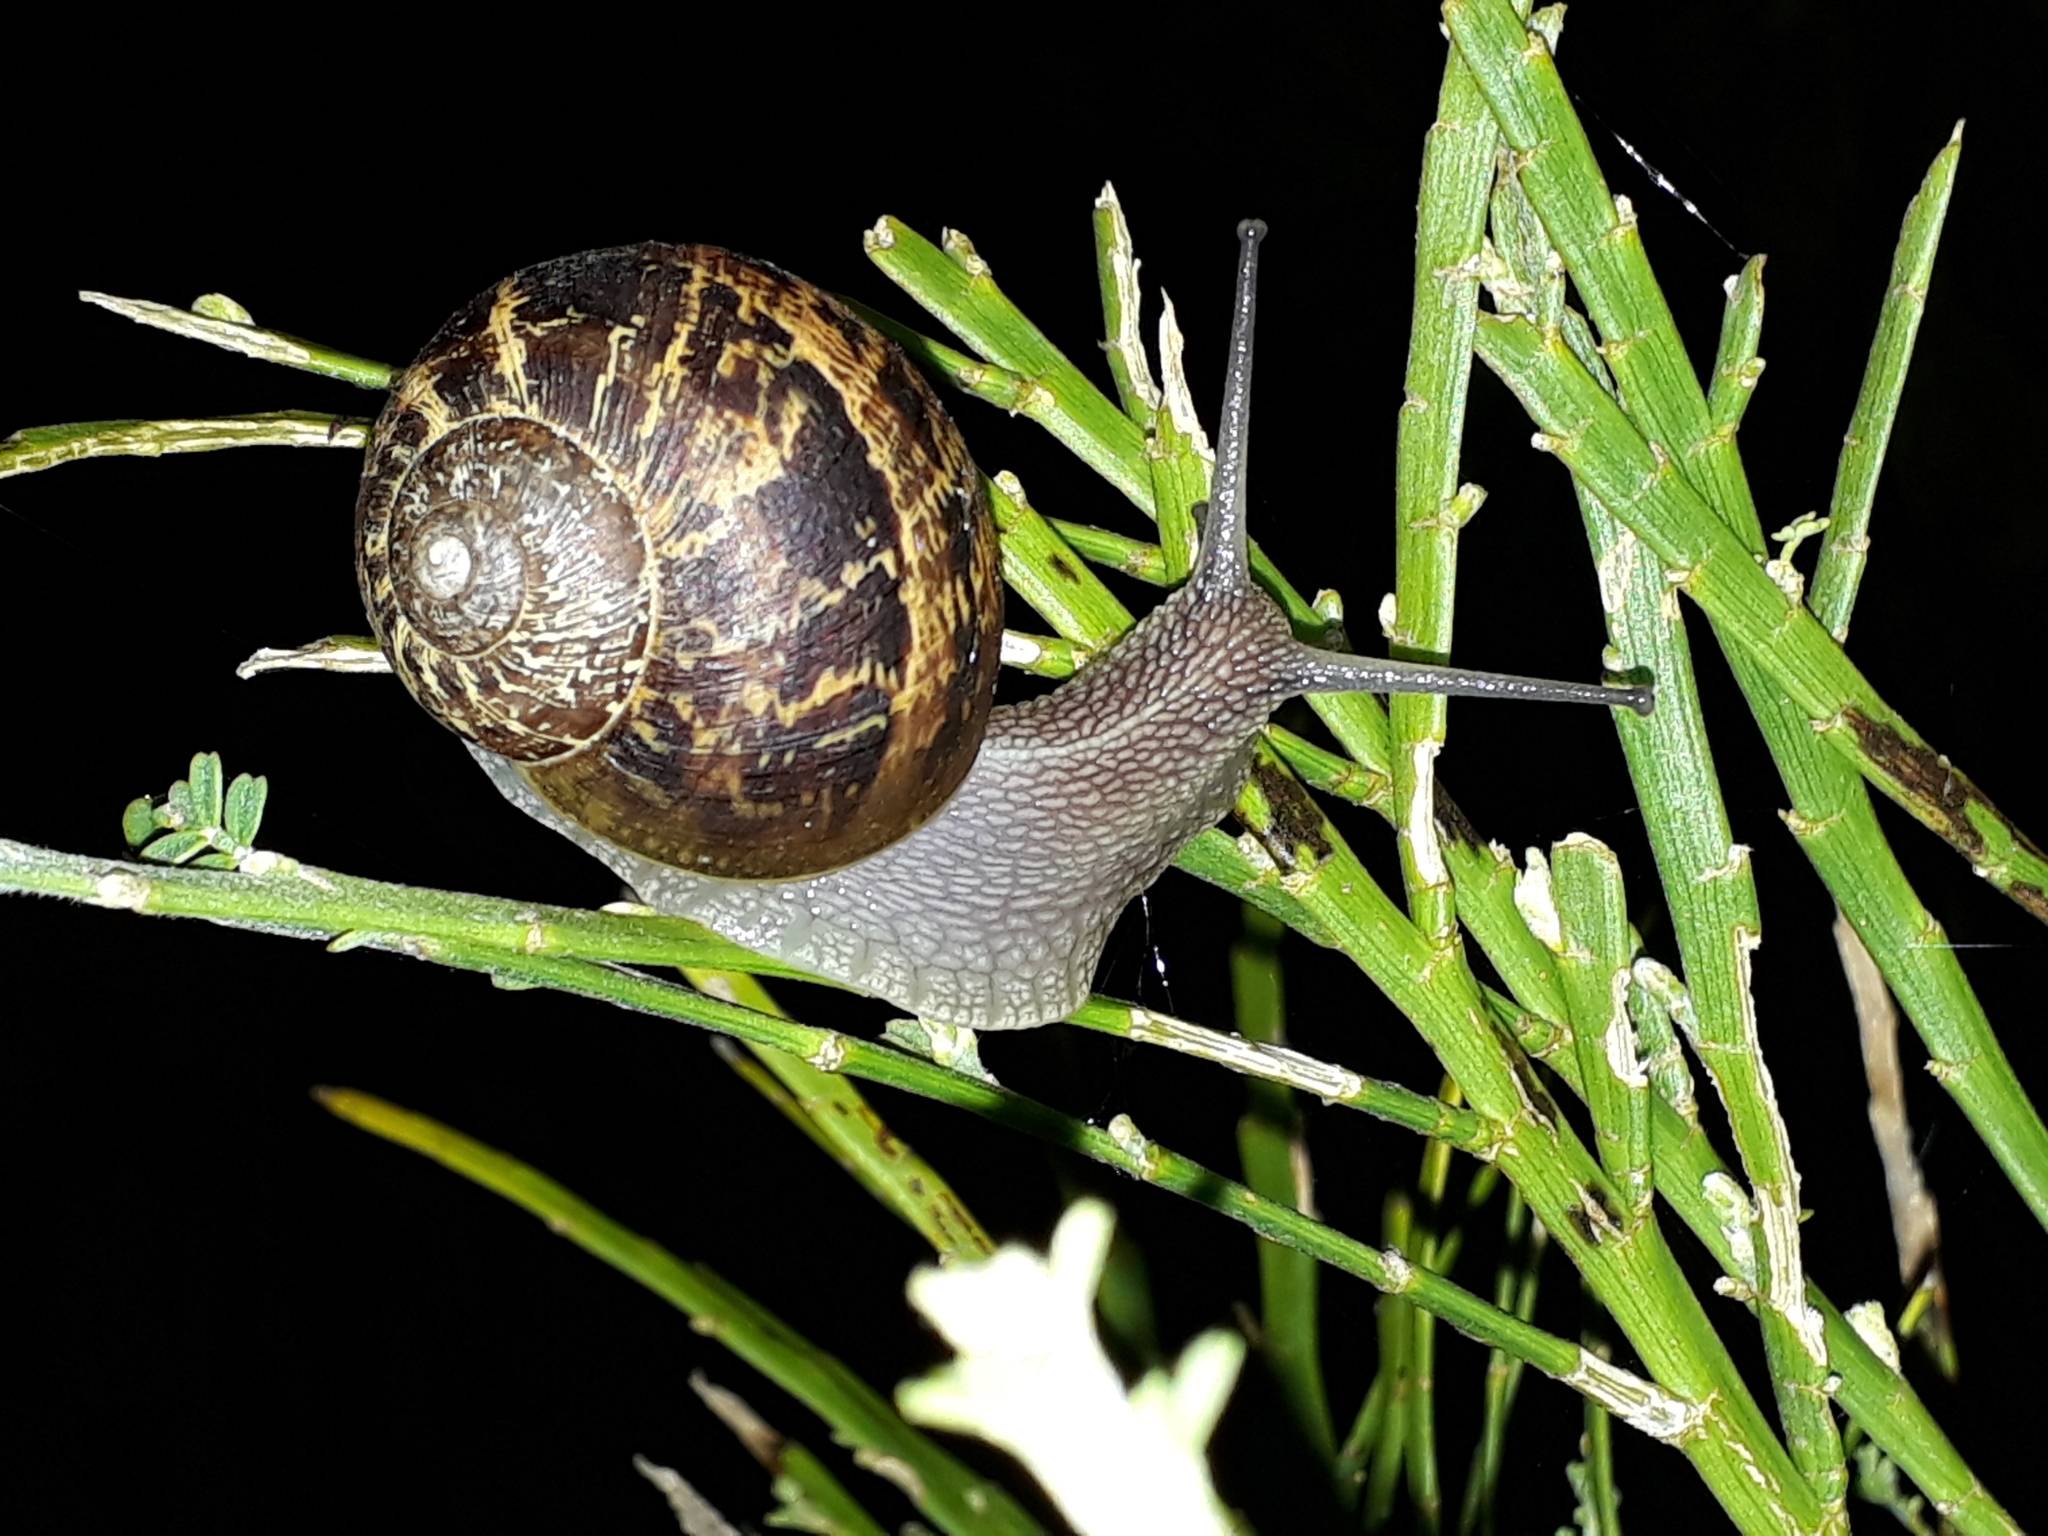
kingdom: Animalia
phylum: Mollusca
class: Gastropoda
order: Stylommatophora
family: Helicidae
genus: Cornu
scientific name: Cornu aspersum
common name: Brown garden snail
